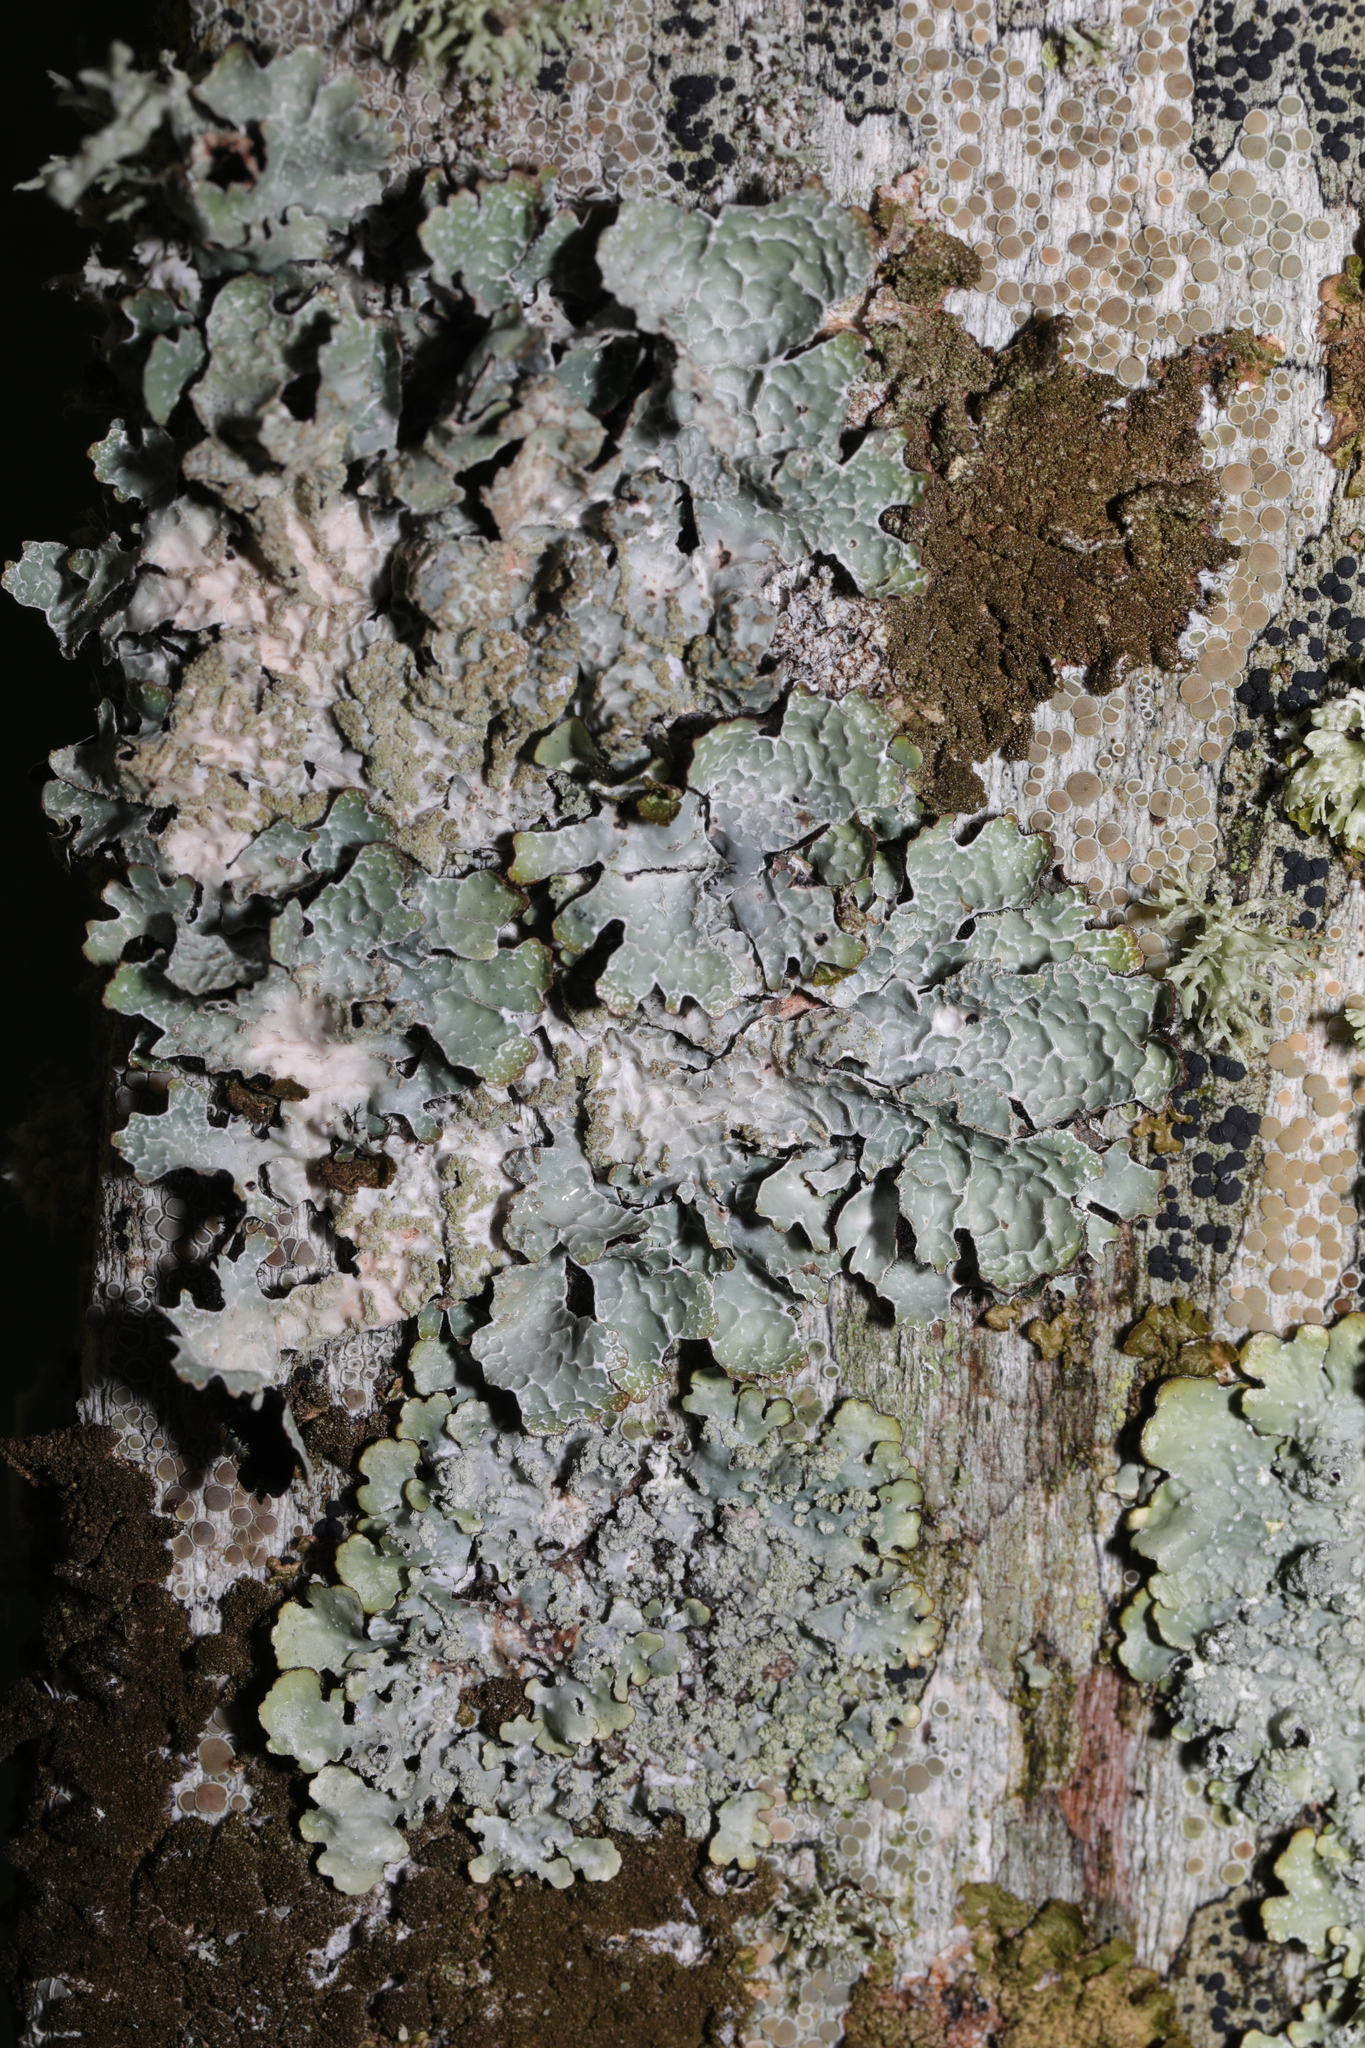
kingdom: Fungi
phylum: Ascomycota
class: Lecanoromycetes
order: Lecanorales
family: Parmeliaceae
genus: Parmelia
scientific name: Parmelia sulcata
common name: Netted shield lichen
